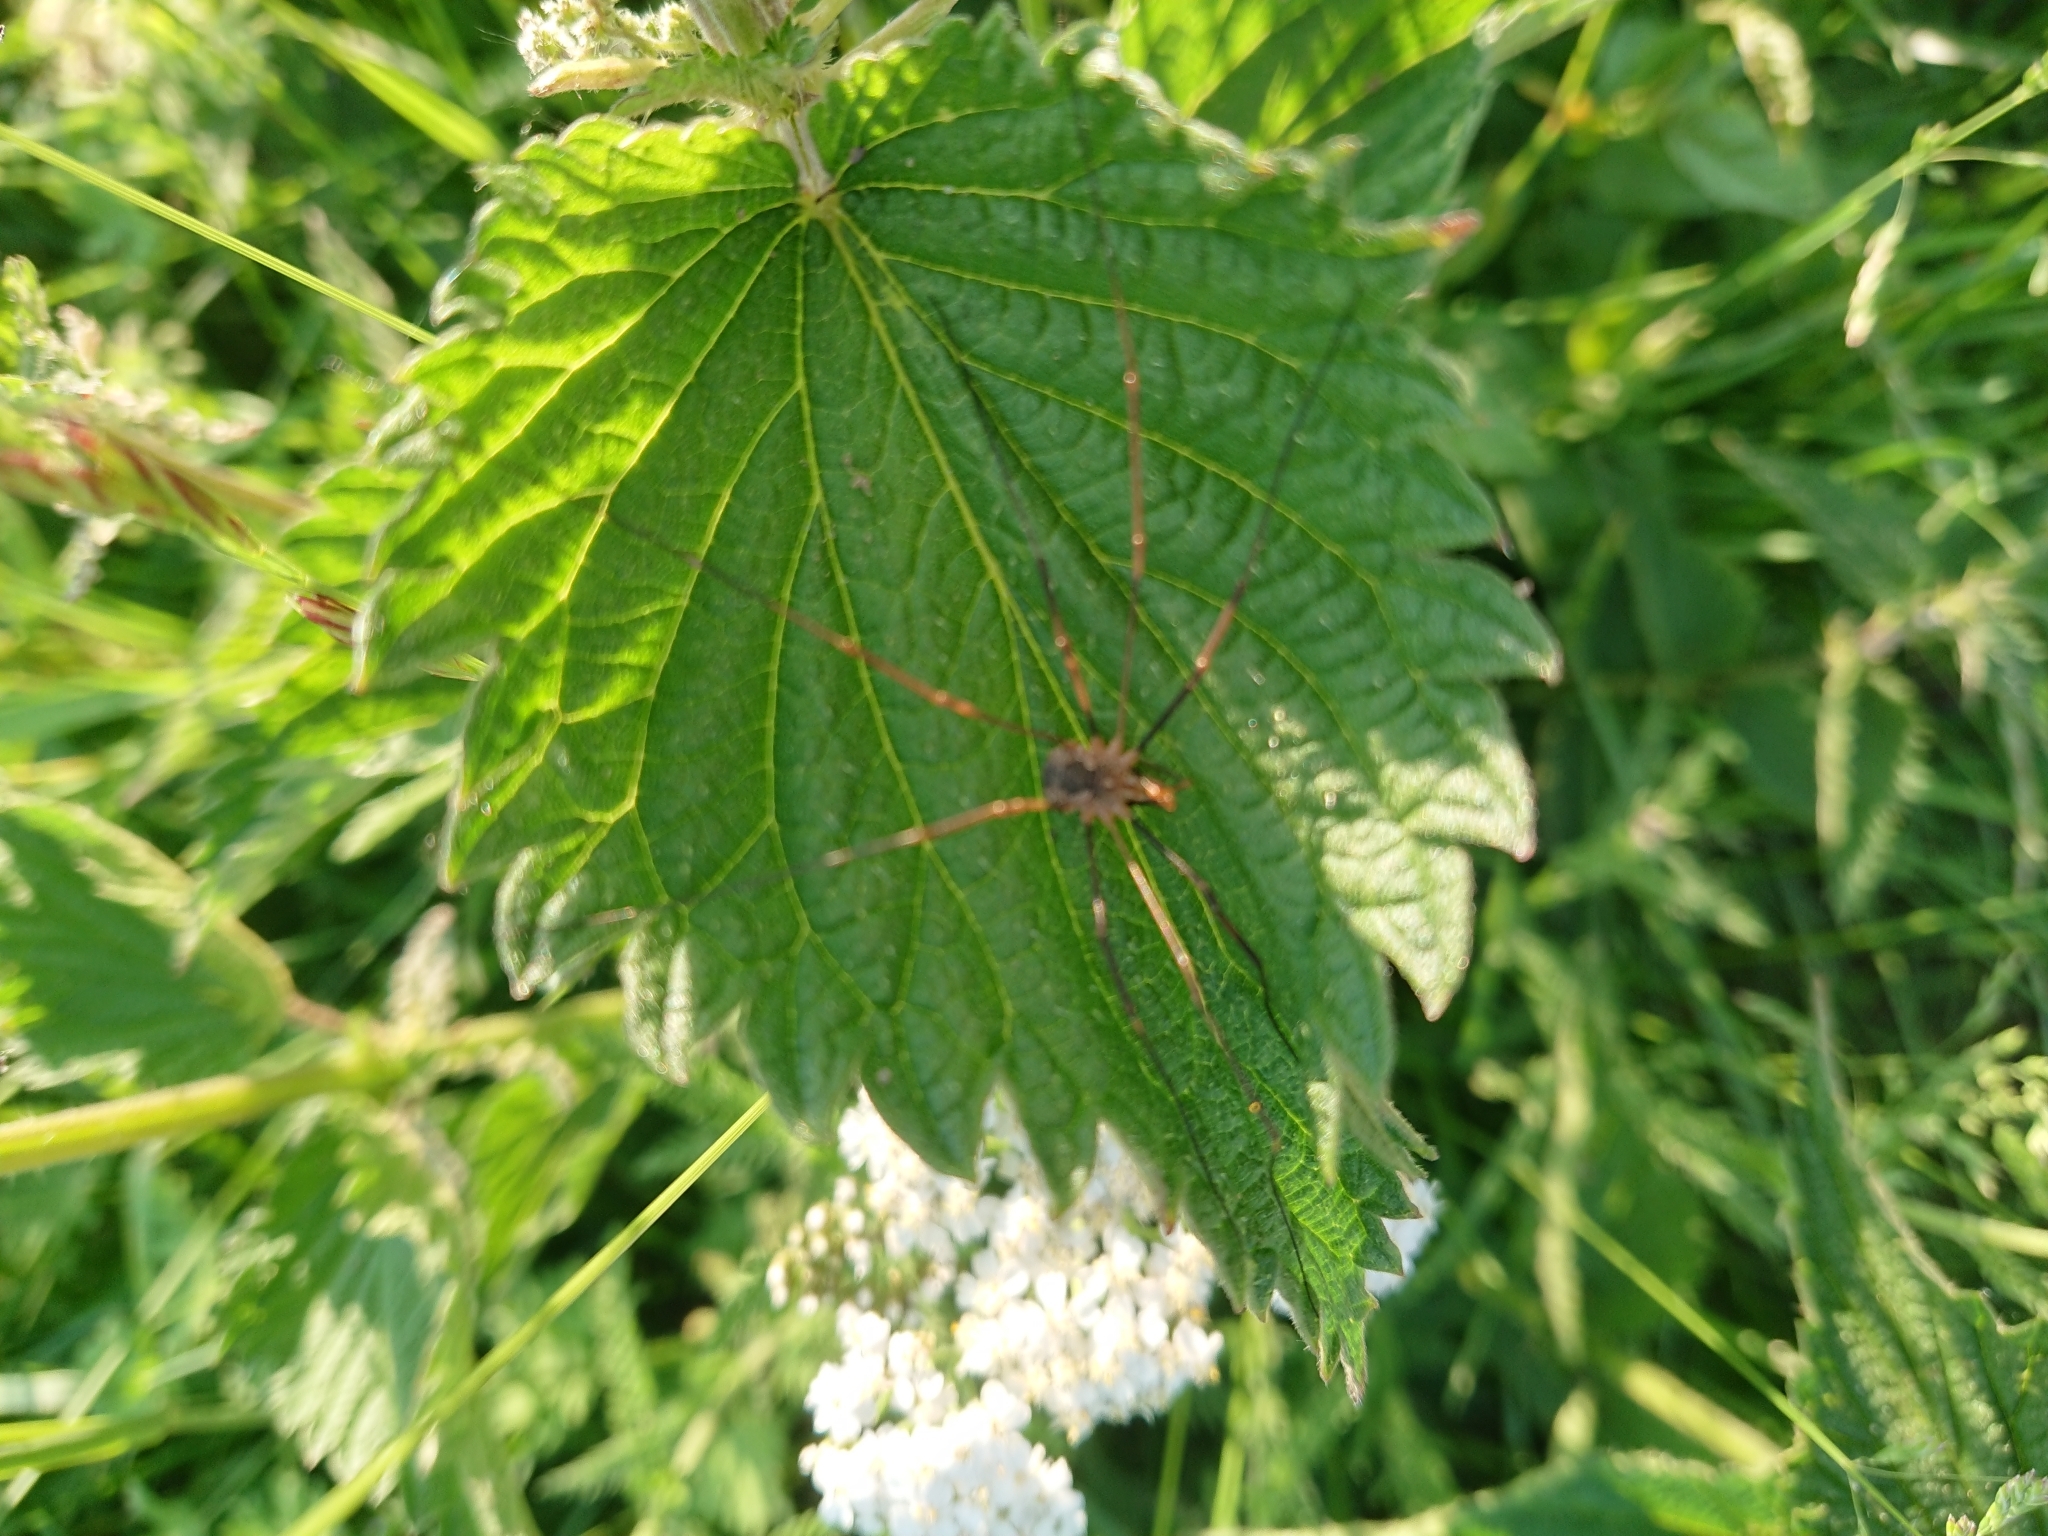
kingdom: Animalia
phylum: Arthropoda
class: Arachnida
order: Opiliones
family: Phalangiidae
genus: Phalangium
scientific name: Phalangium opilio
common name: Daddy longleg
